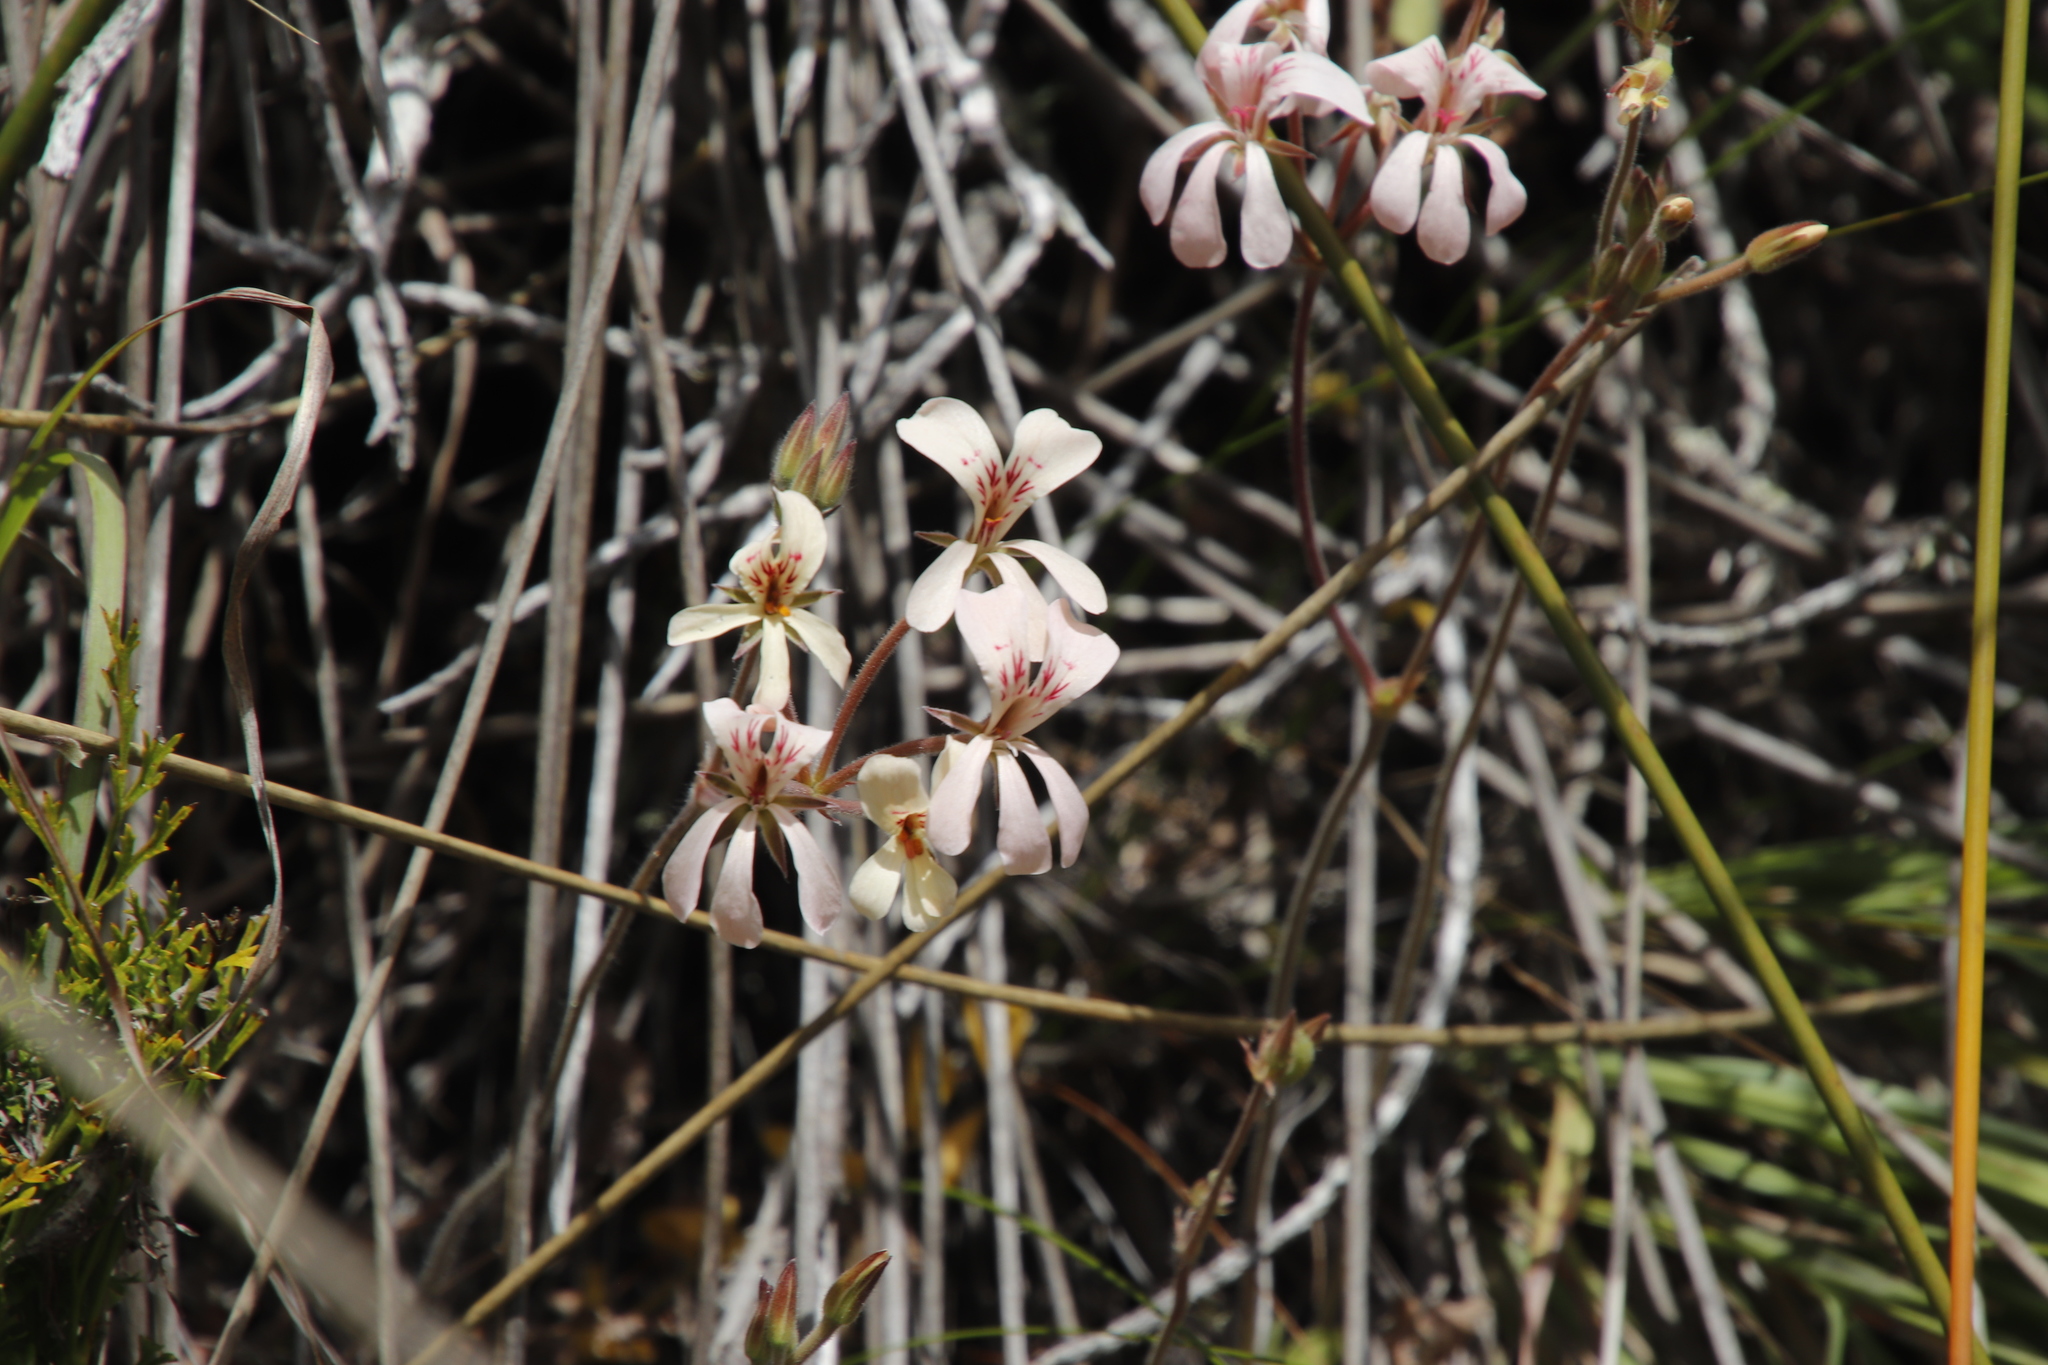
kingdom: Plantae
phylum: Tracheophyta
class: Magnoliopsida
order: Geraniales
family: Geraniaceae
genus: Pelargonium
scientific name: Pelargonium pinnatum
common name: Pinnated pelargonium
